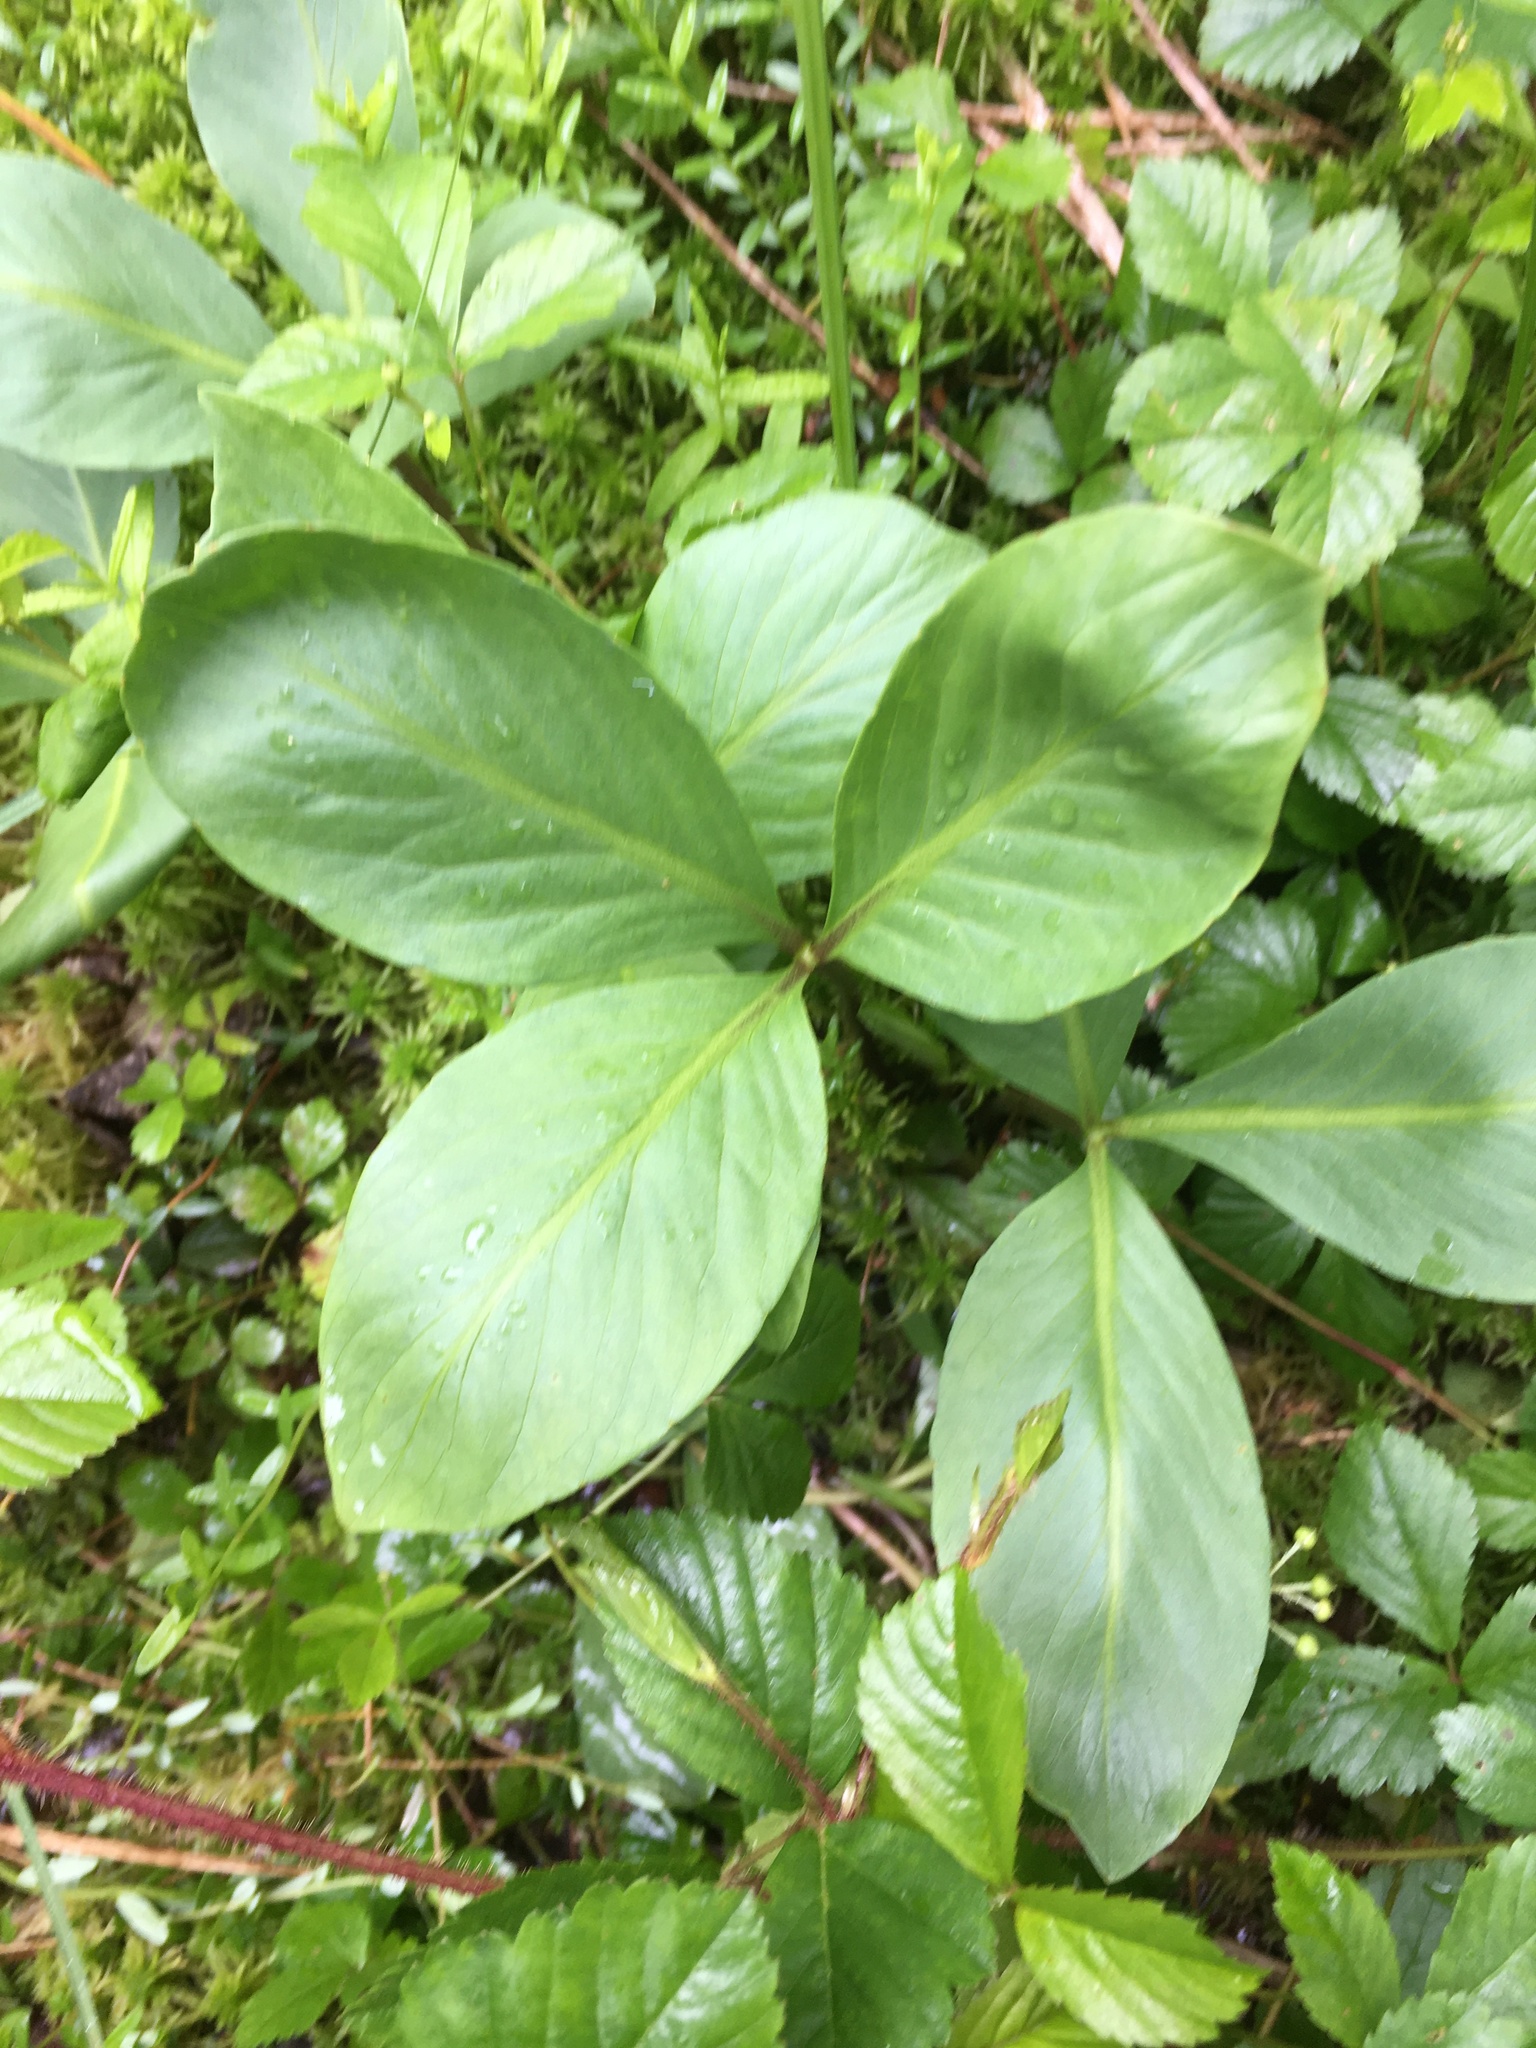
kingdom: Plantae
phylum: Tracheophyta
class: Magnoliopsida
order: Asterales
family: Menyanthaceae
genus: Menyanthes
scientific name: Menyanthes trifoliata
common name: Bogbean
